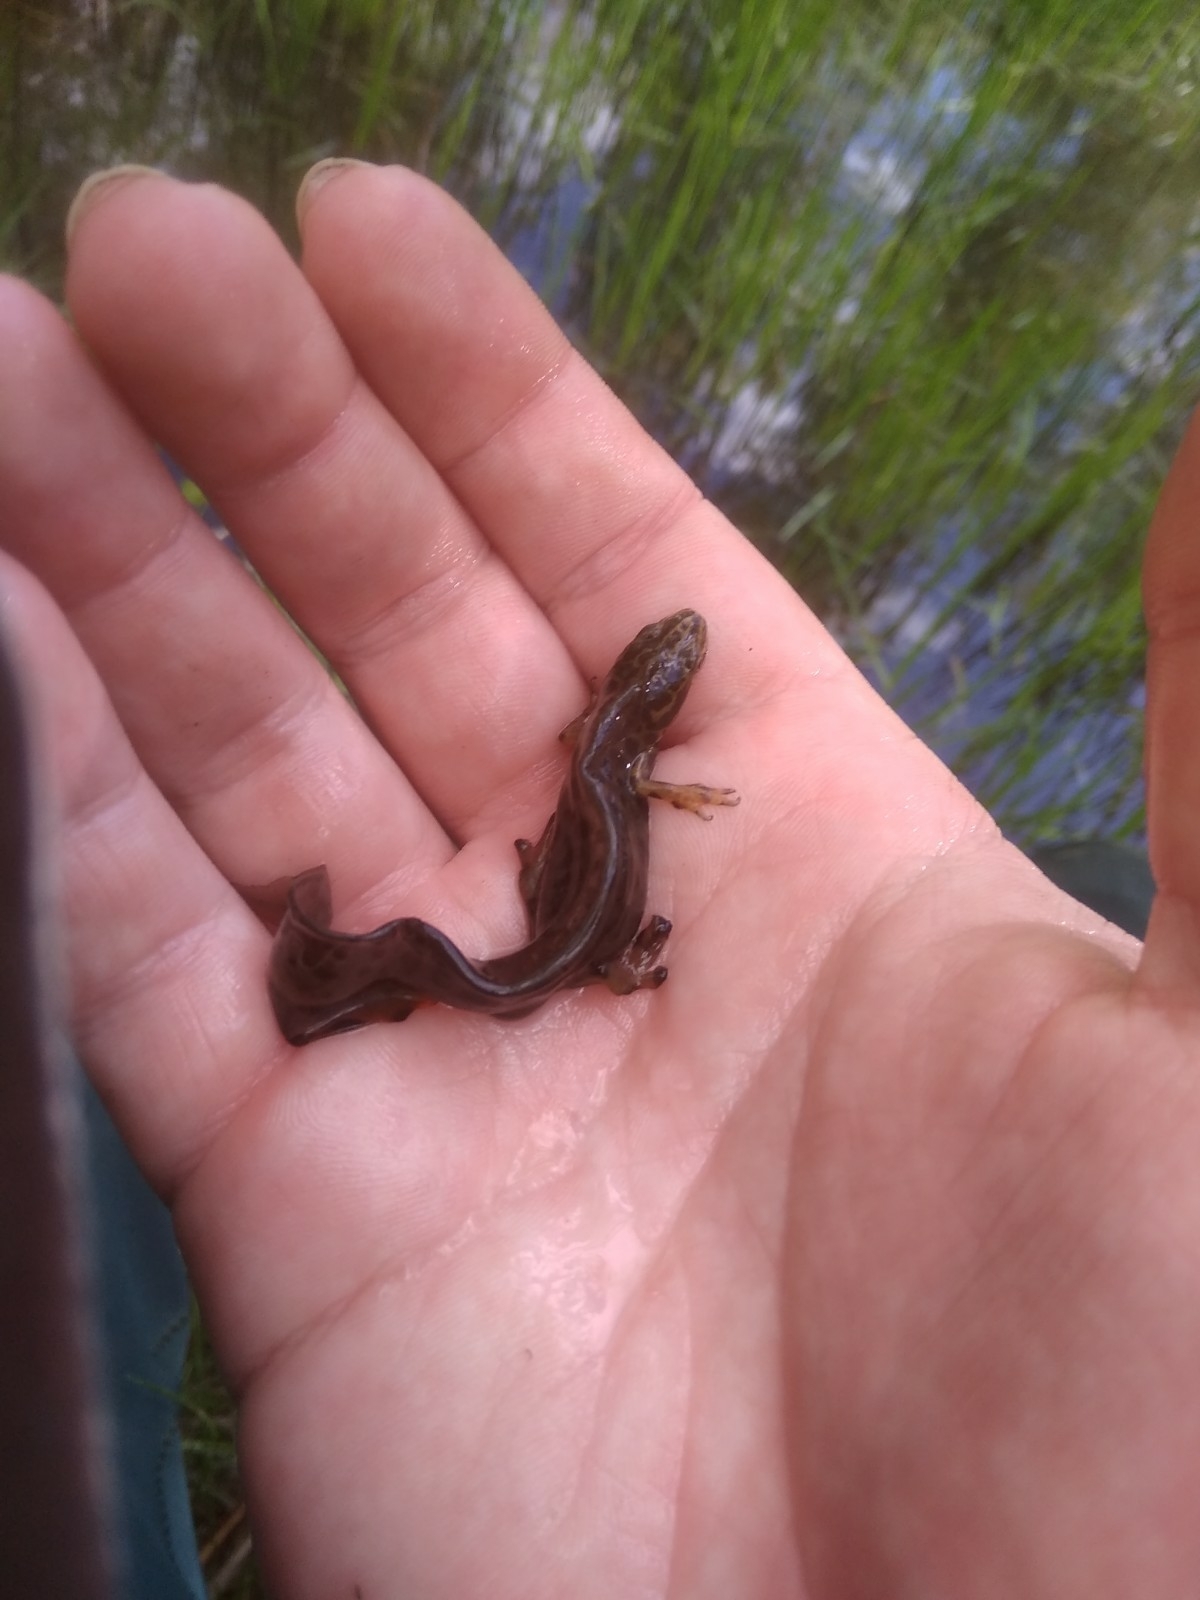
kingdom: Animalia
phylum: Chordata
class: Amphibia
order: Caudata
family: Salamandridae
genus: Lissotriton
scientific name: Lissotriton vulgaris
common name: Smooth newt
